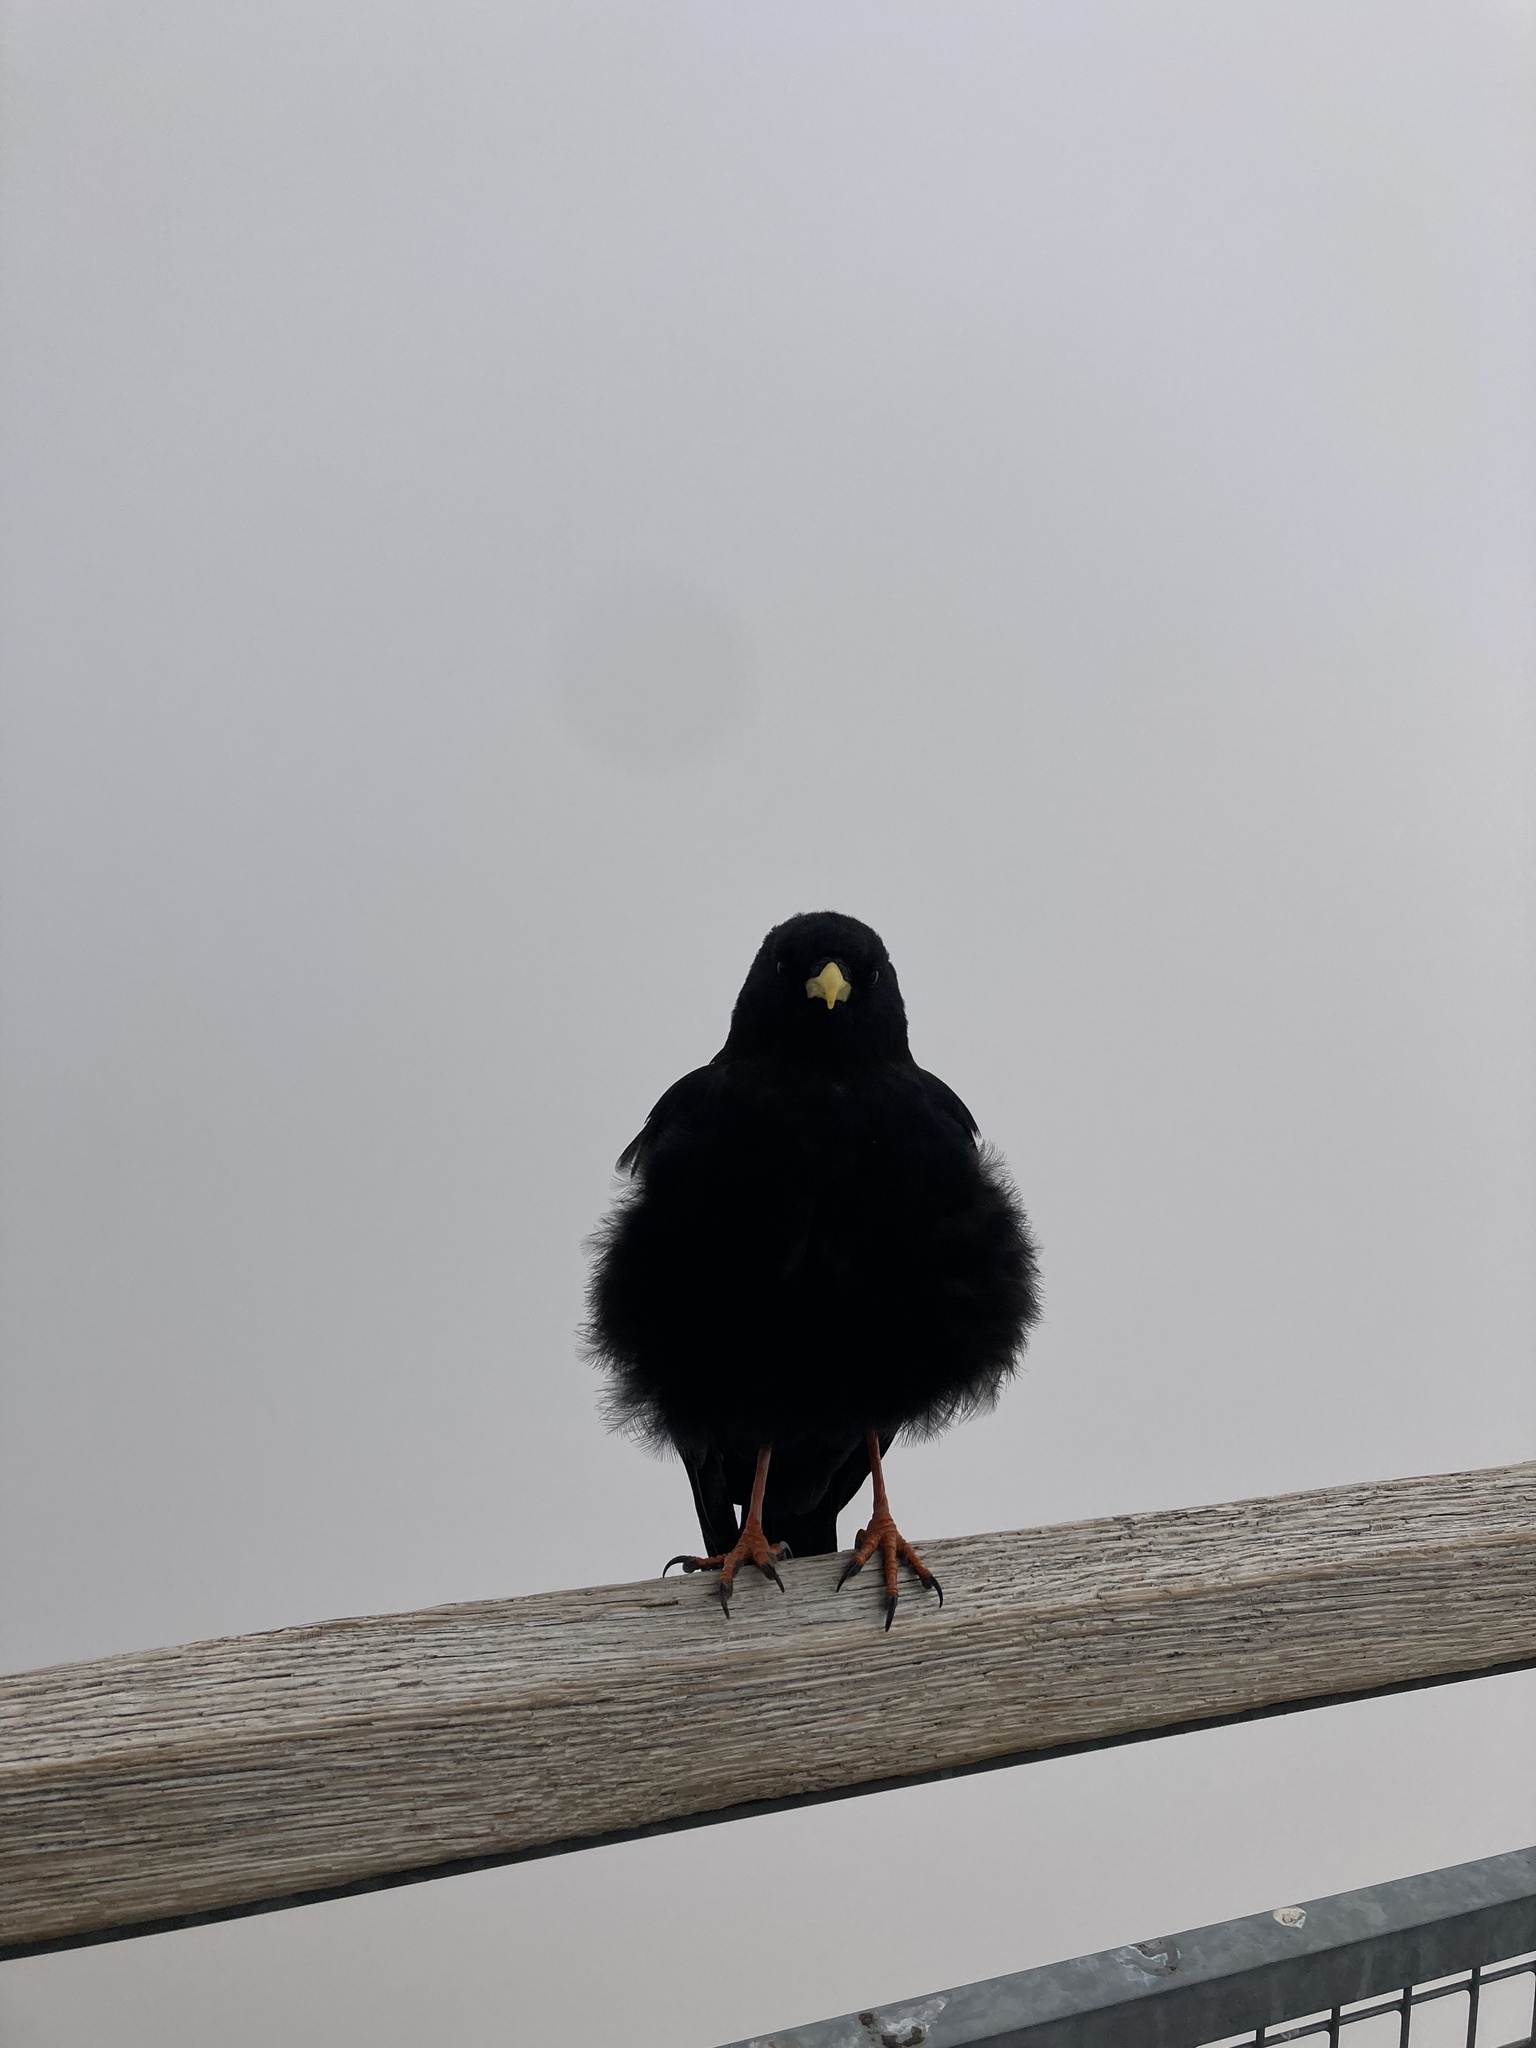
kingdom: Animalia
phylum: Chordata
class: Aves
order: Passeriformes
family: Corvidae
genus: Pyrrhocorax
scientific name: Pyrrhocorax graculus
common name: Alpine chough
